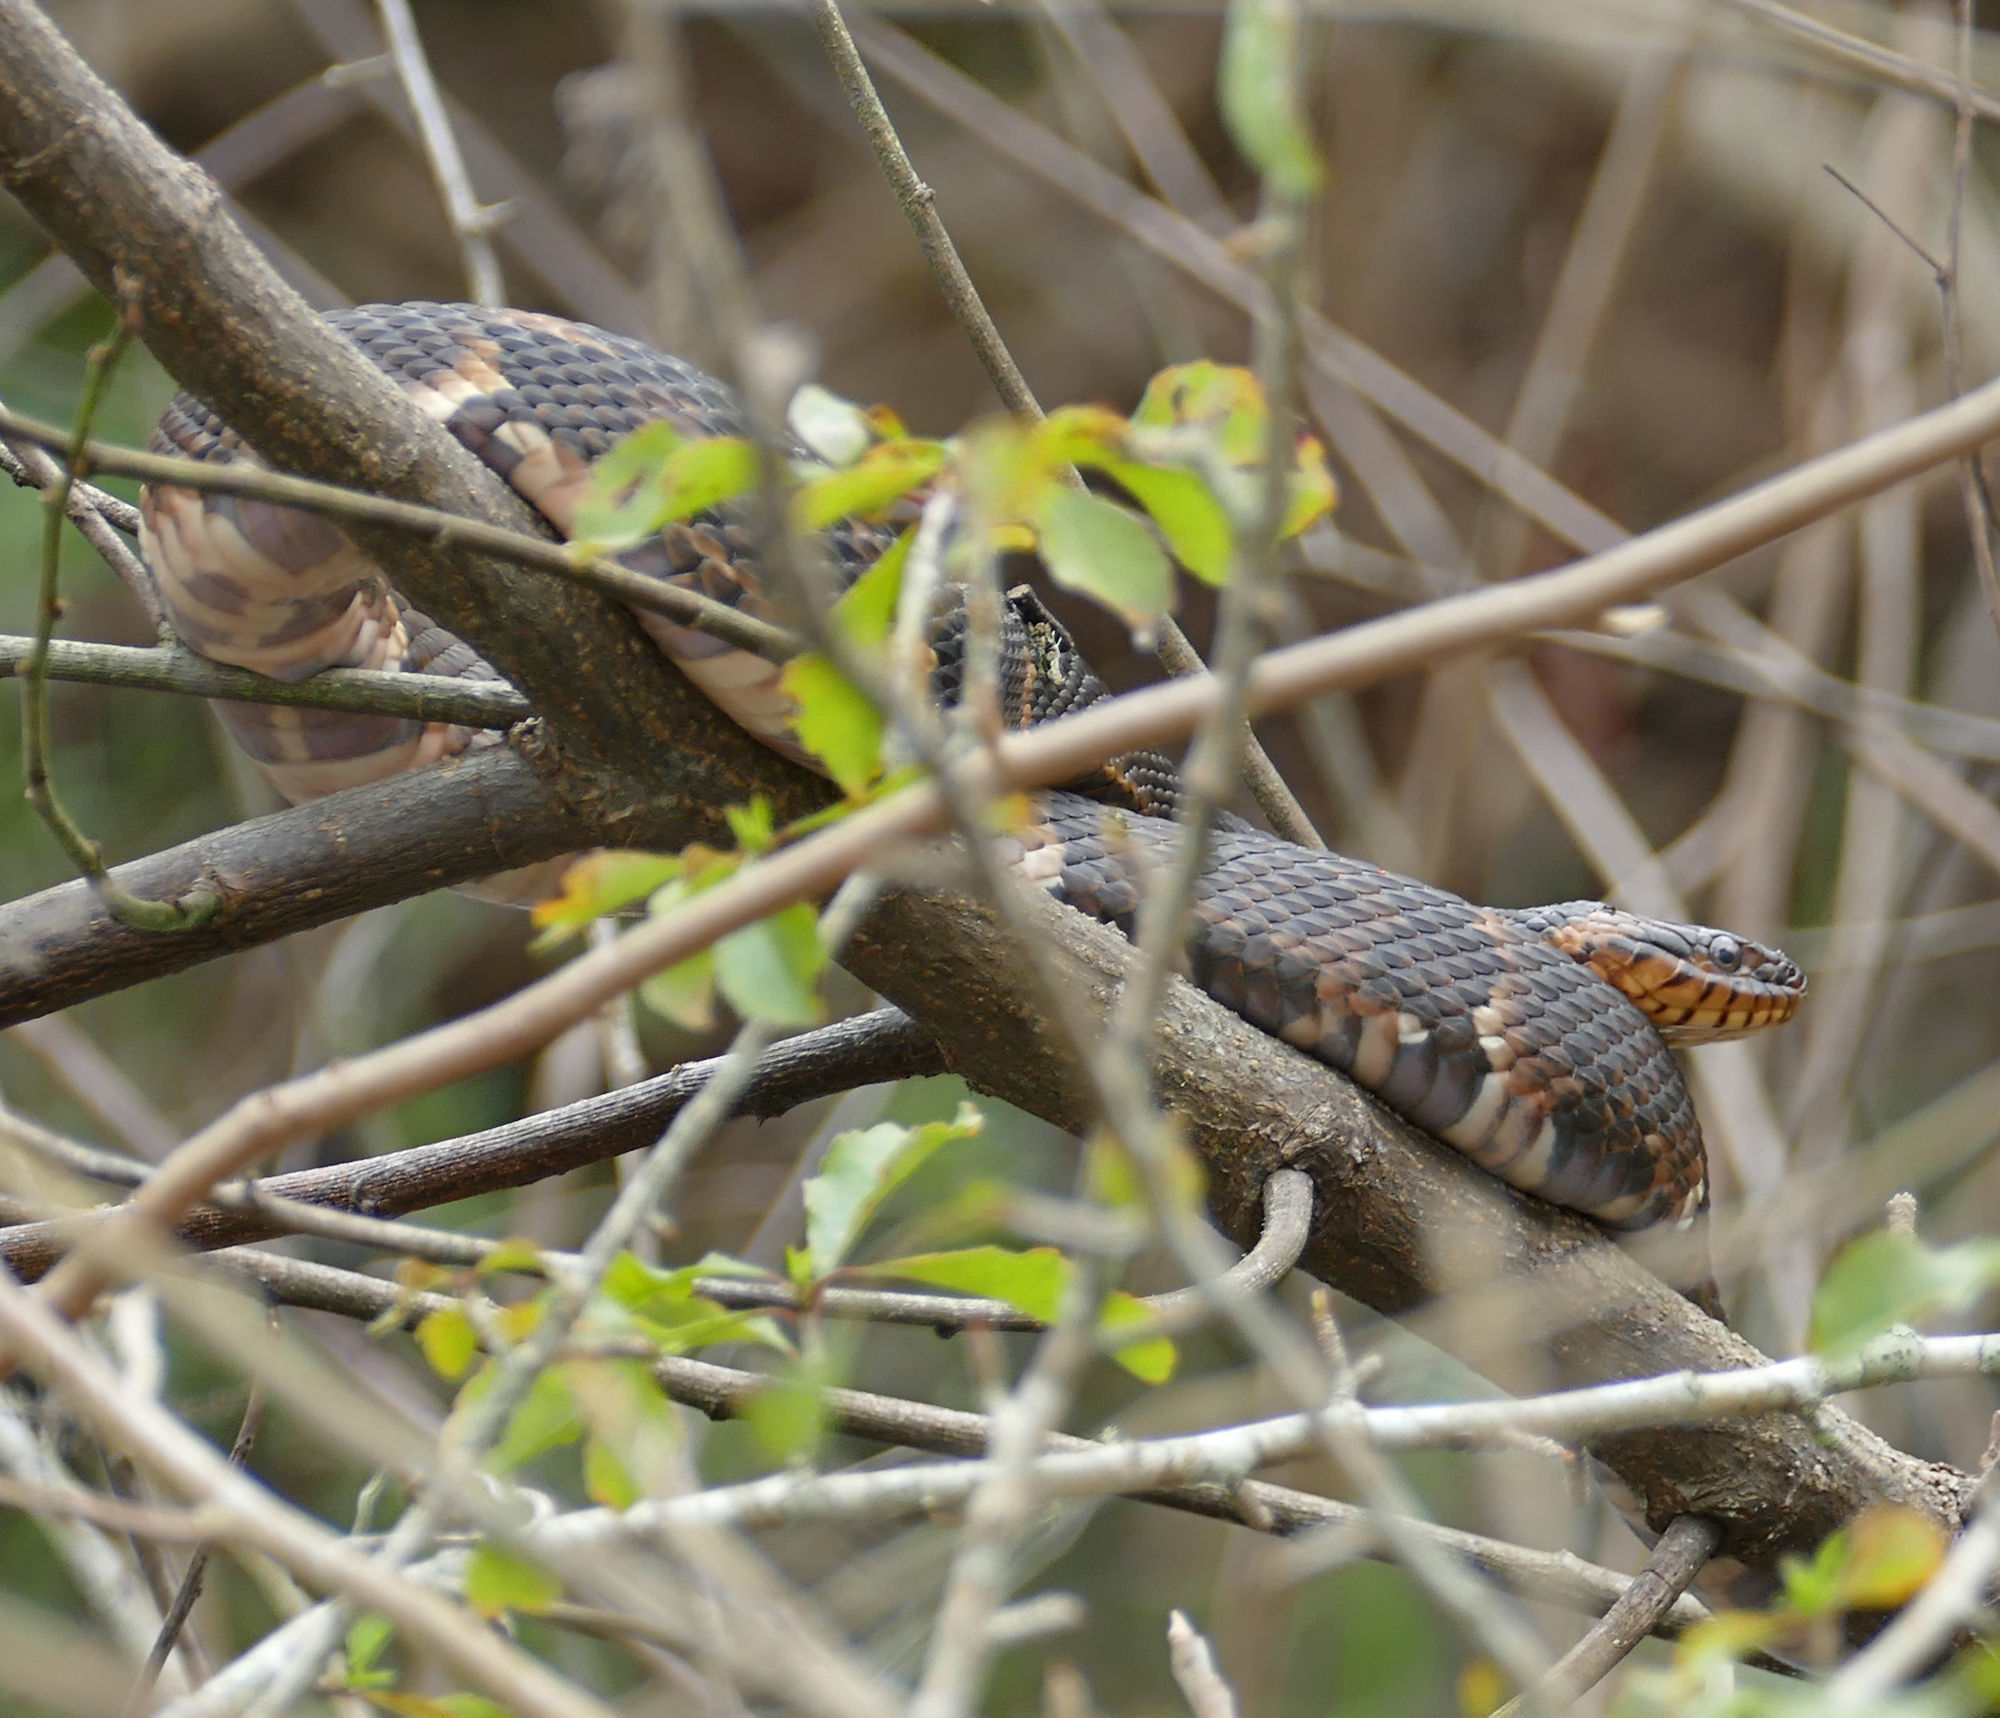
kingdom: Animalia
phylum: Chordata
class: Squamata
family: Colubridae
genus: Nerodia
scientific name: Nerodia fasciata
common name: Southern water snake
